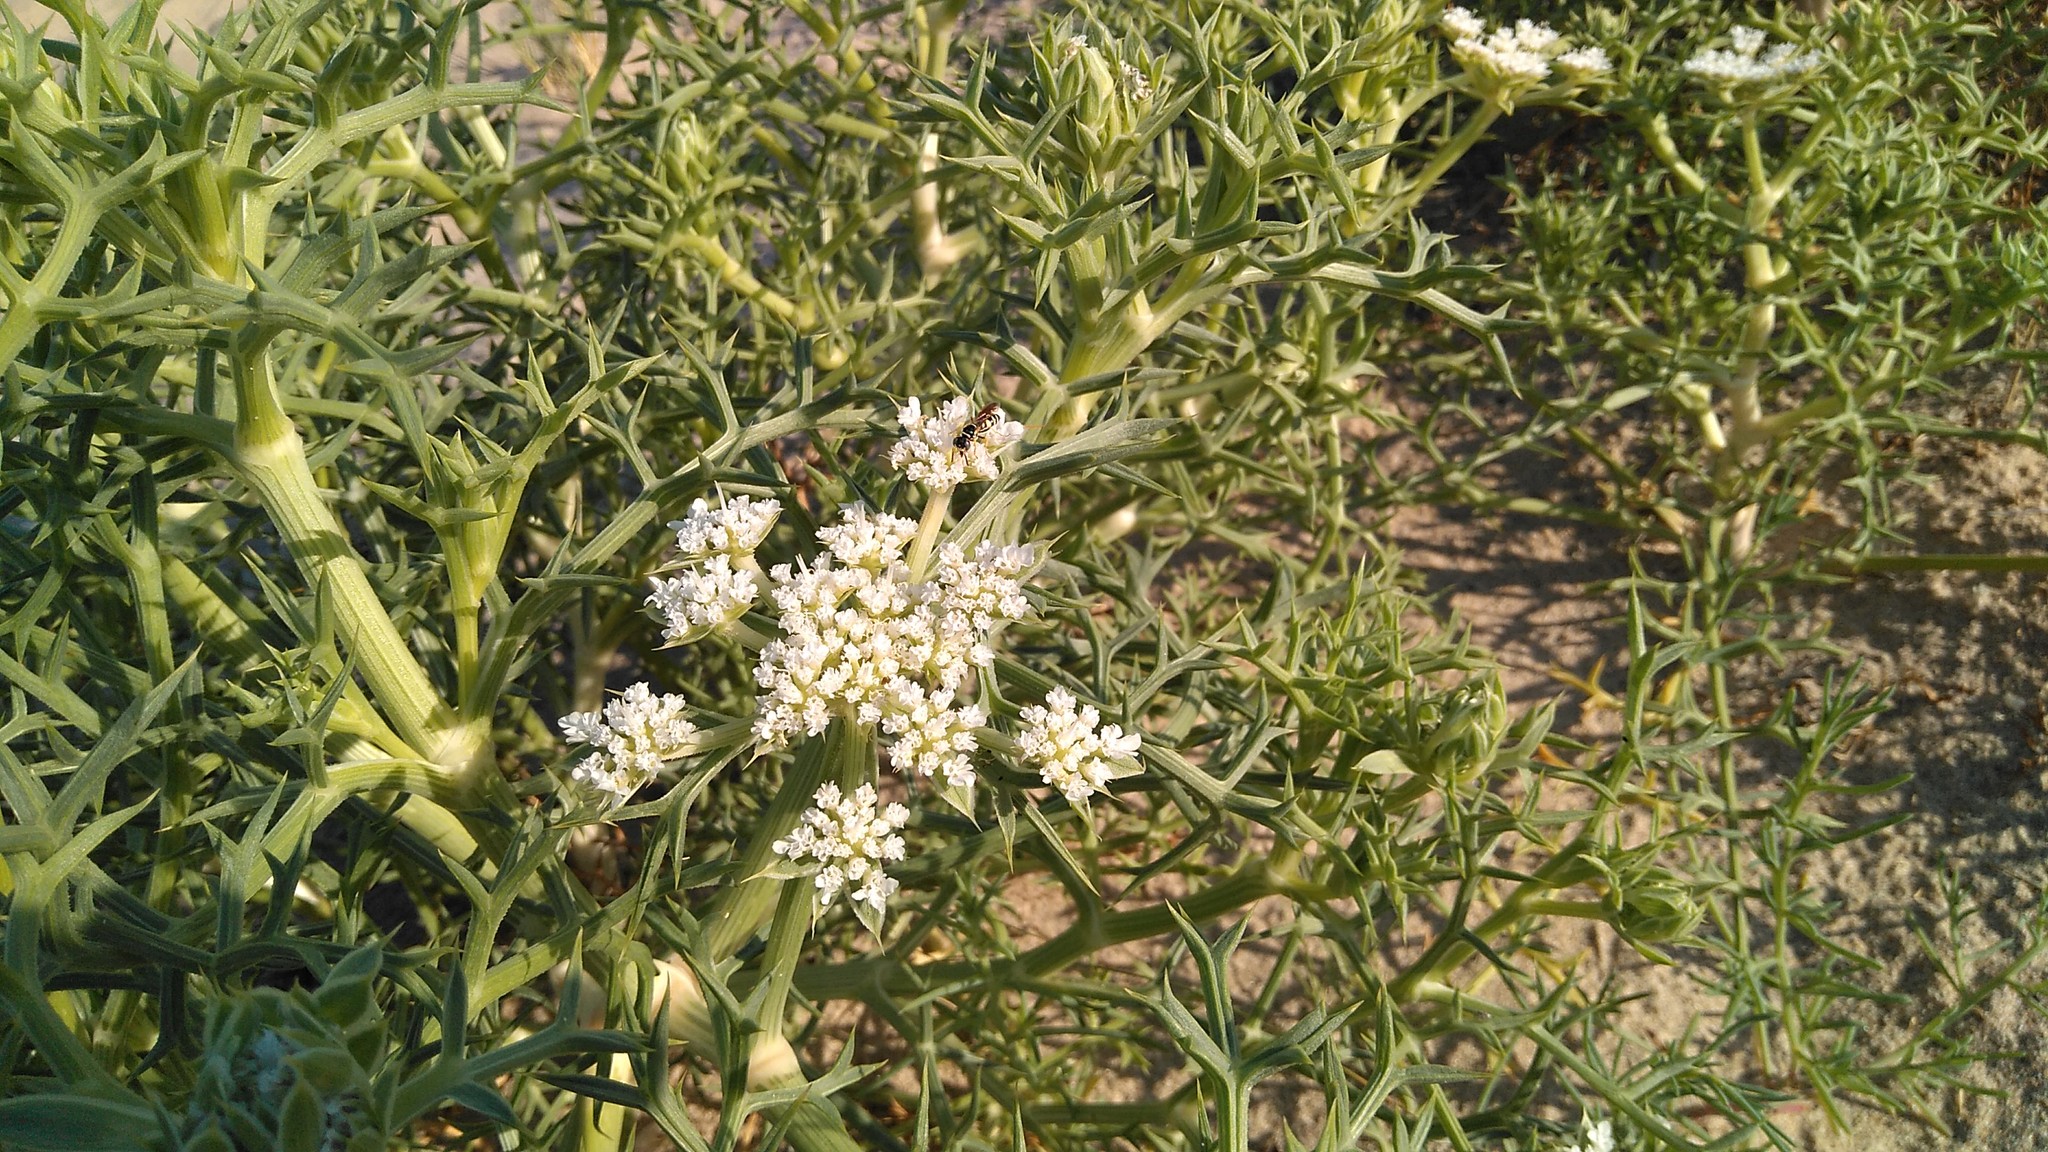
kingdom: Plantae
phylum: Tracheophyta
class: Magnoliopsida
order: Apiales
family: Apiaceae
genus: Echinophora
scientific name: Echinophora spinosa
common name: Prickly samphire
